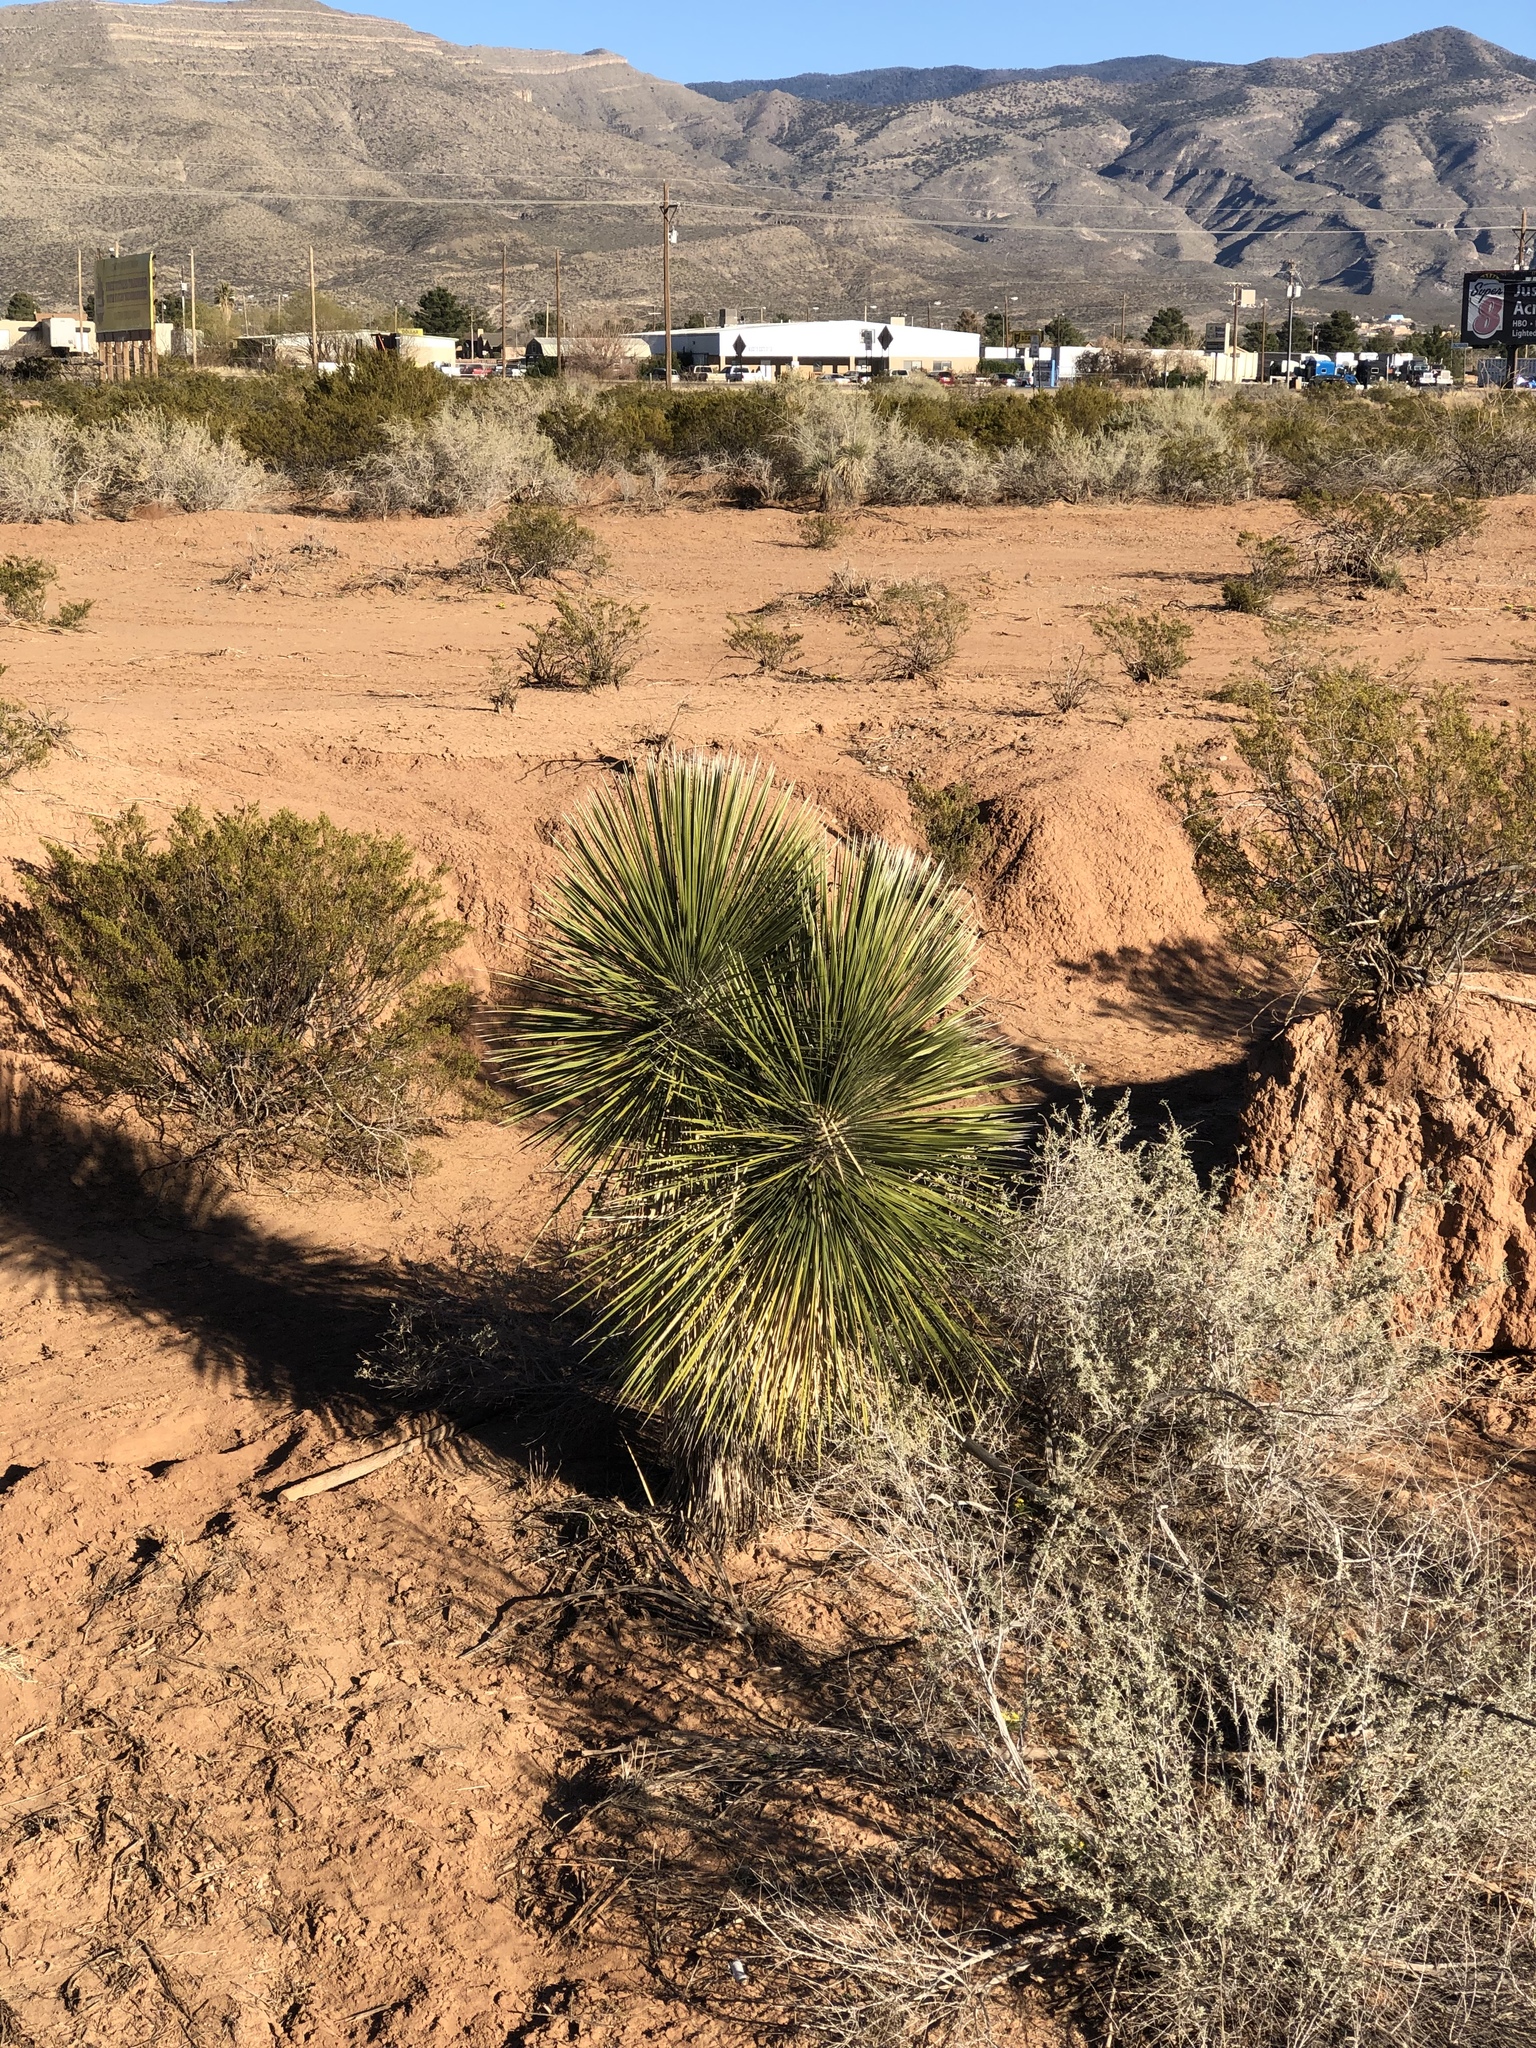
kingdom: Plantae
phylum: Tracheophyta
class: Liliopsida
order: Asparagales
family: Asparagaceae
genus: Yucca
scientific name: Yucca elata
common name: Palmella
